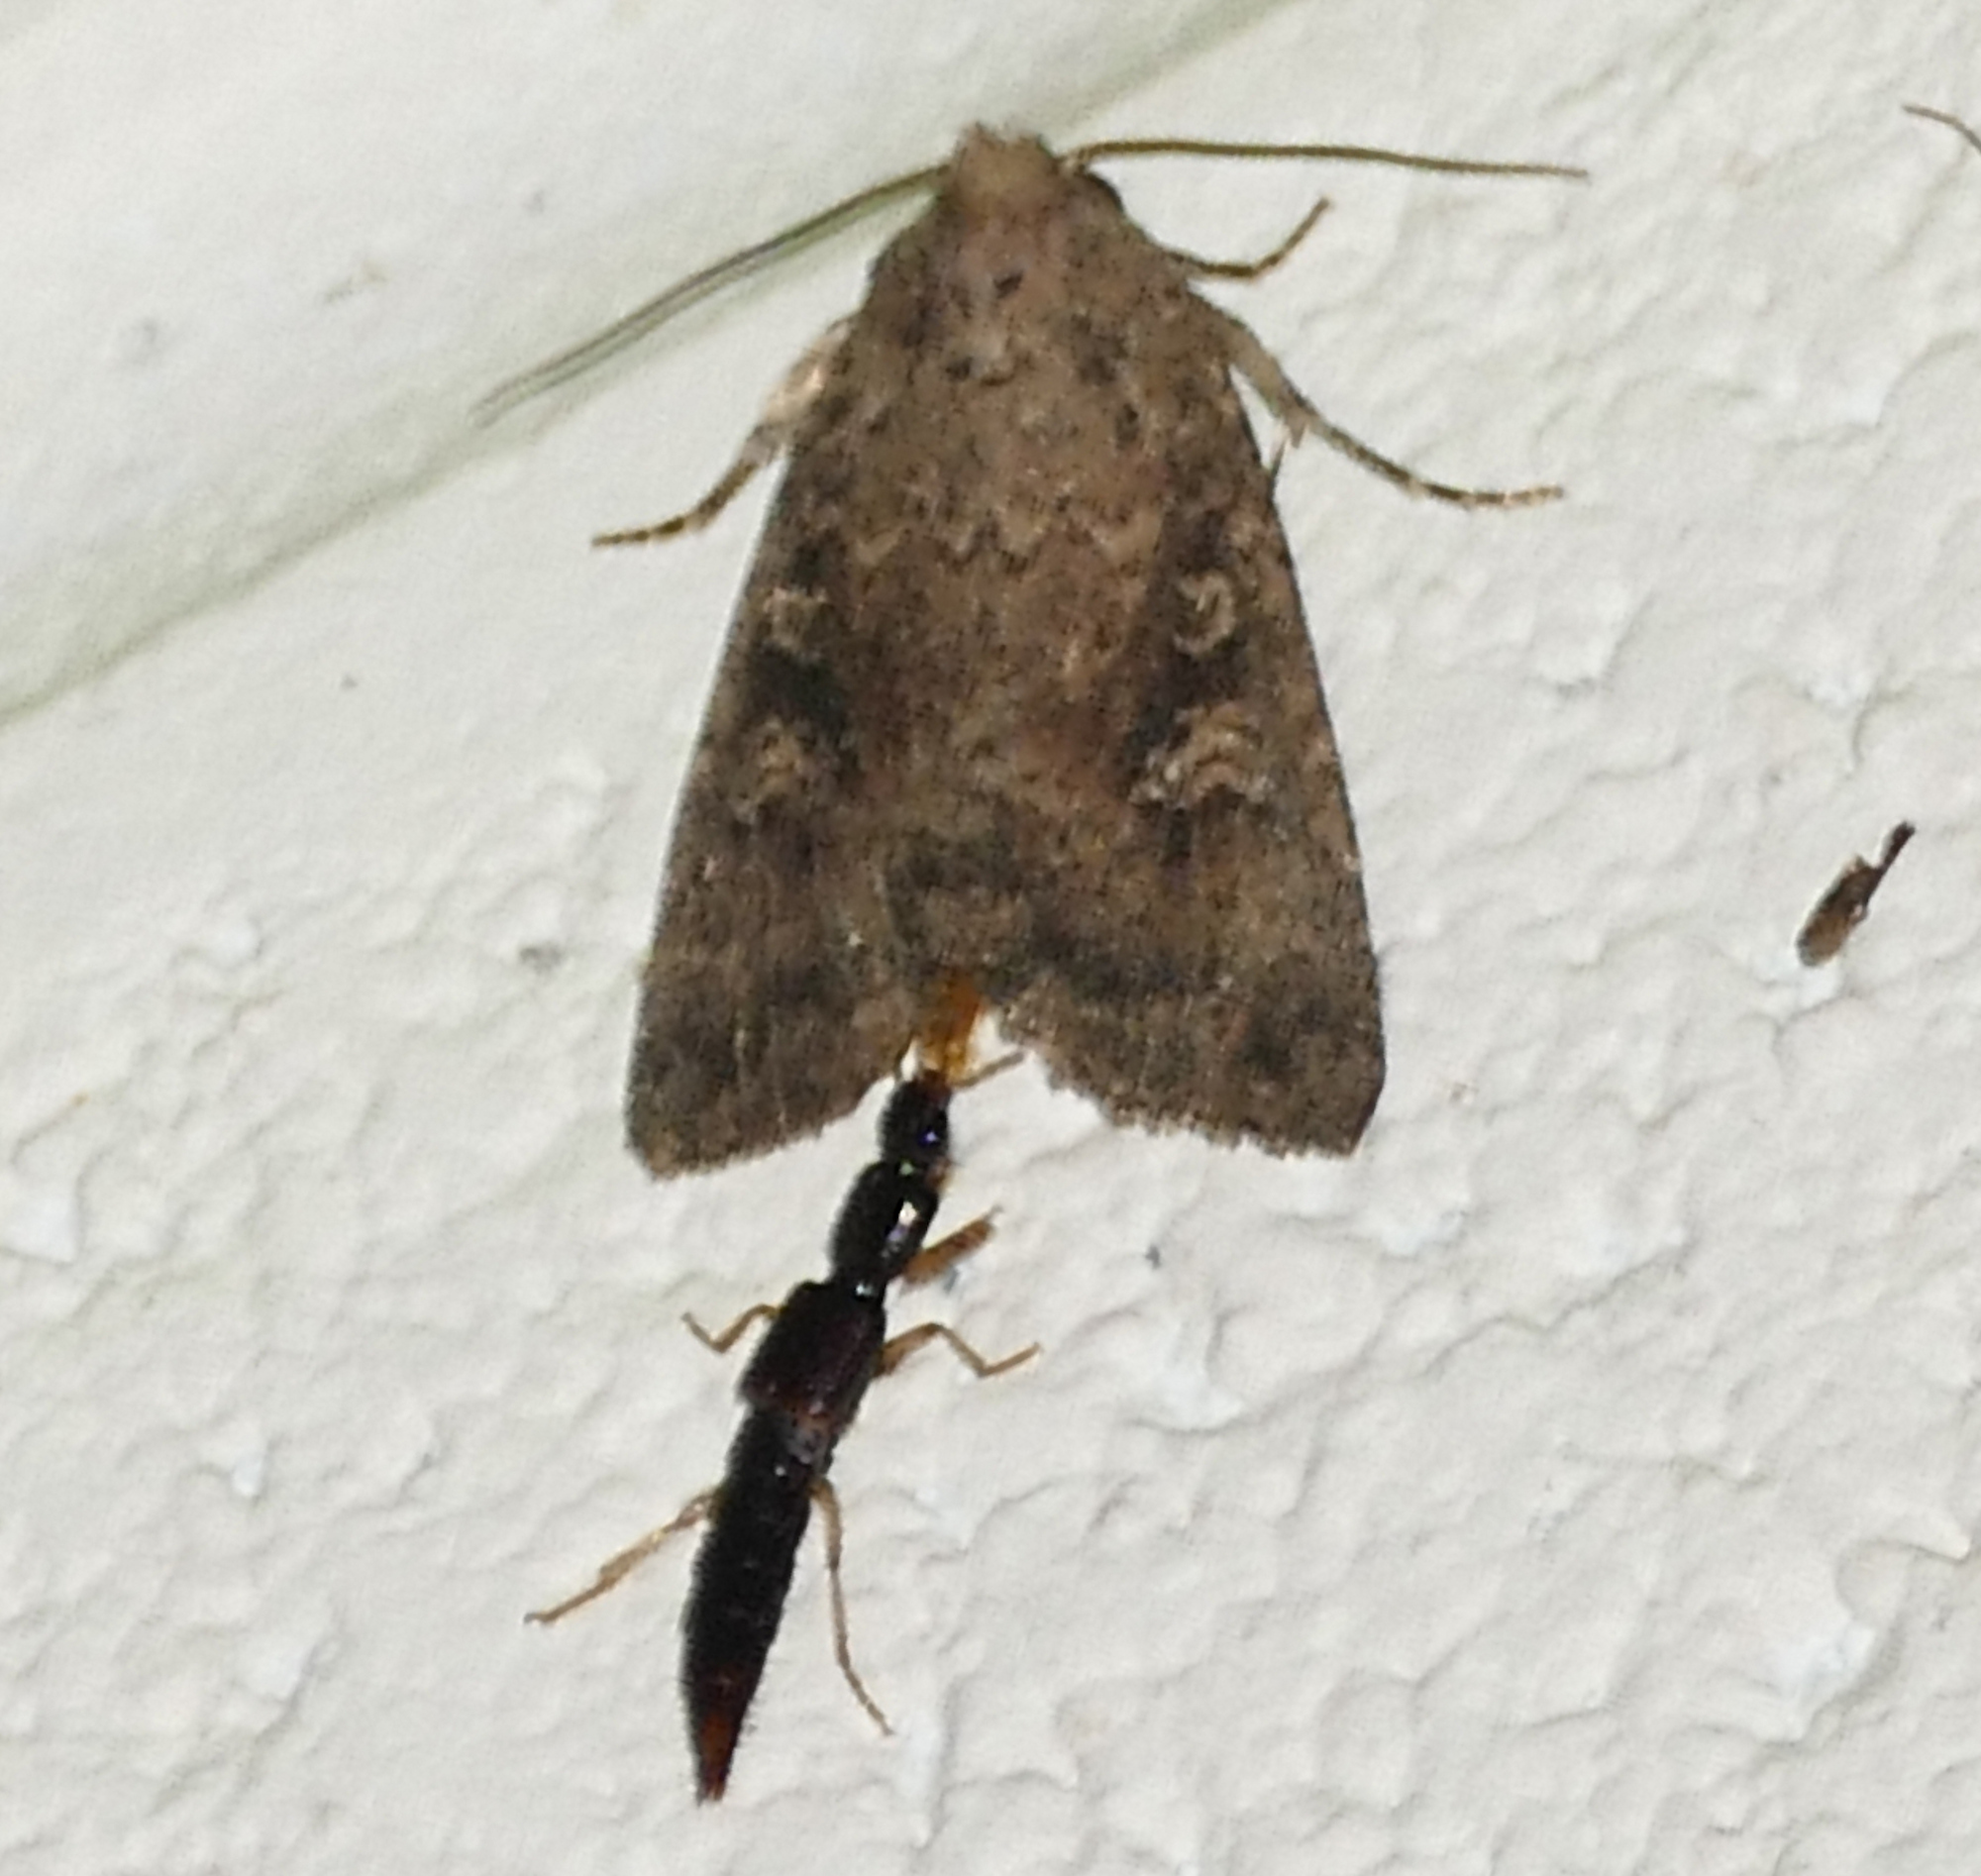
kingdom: Animalia
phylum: Arthropoda
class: Insecta
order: Lepidoptera
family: Noctuidae
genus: Condica
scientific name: Condica sutor
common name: Cobbler moth
